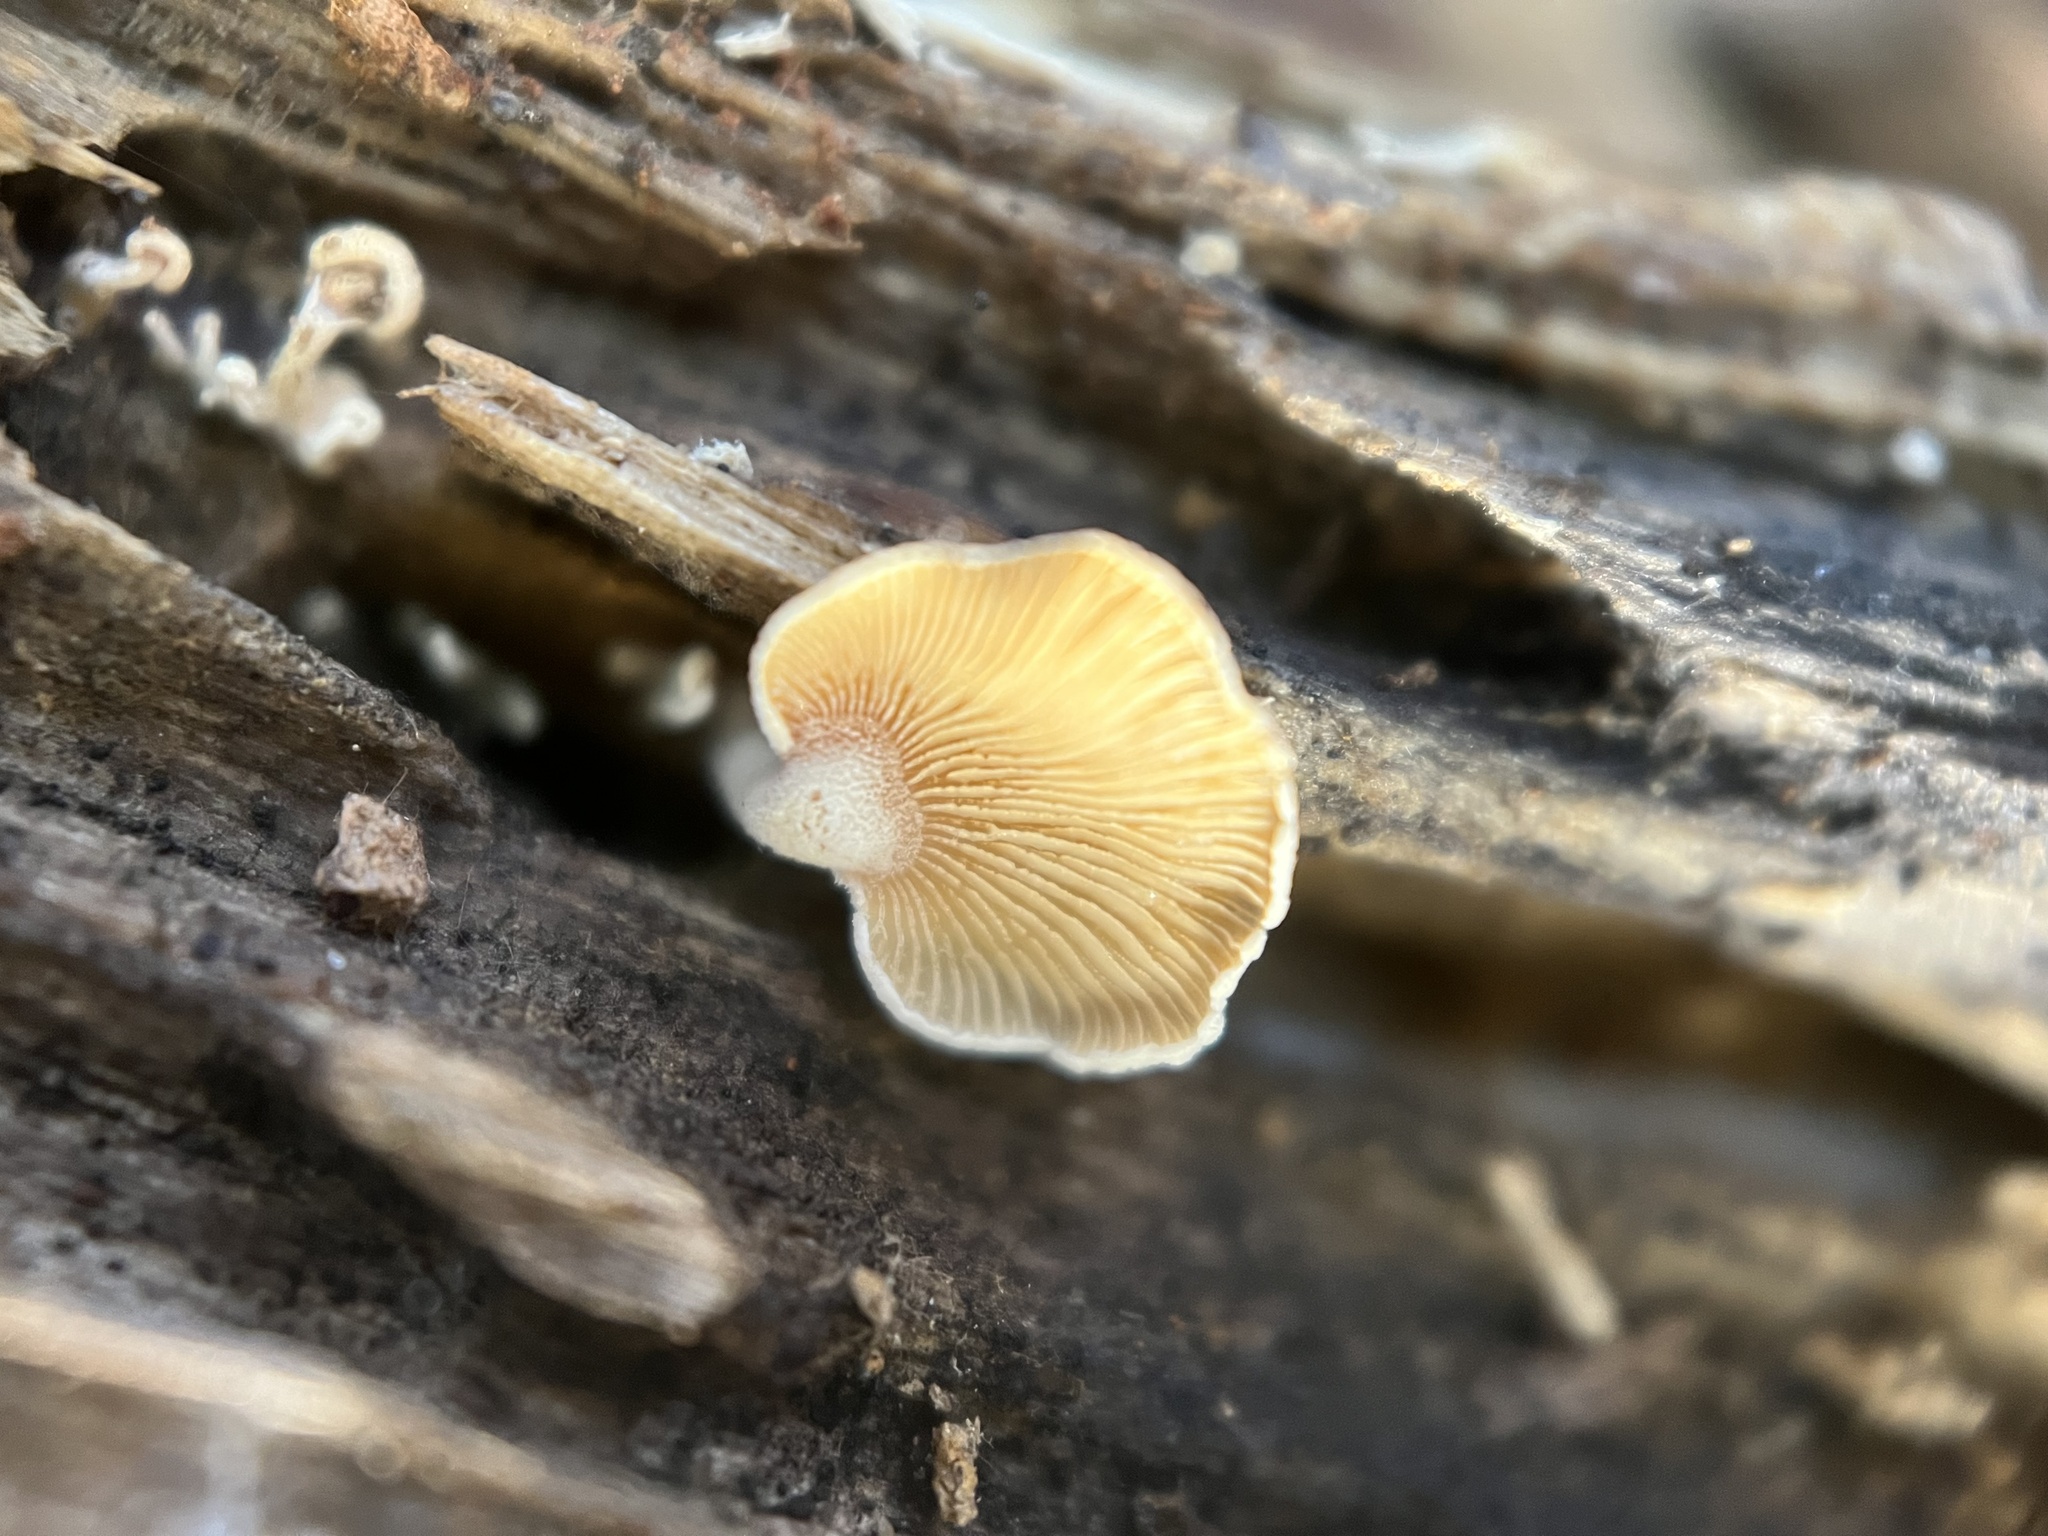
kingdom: Fungi
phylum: Basidiomycota
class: Agaricomycetes
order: Agaricales
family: Mycenaceae
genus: Panellus
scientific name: Panellus stipticus
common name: Bitter oysterling
